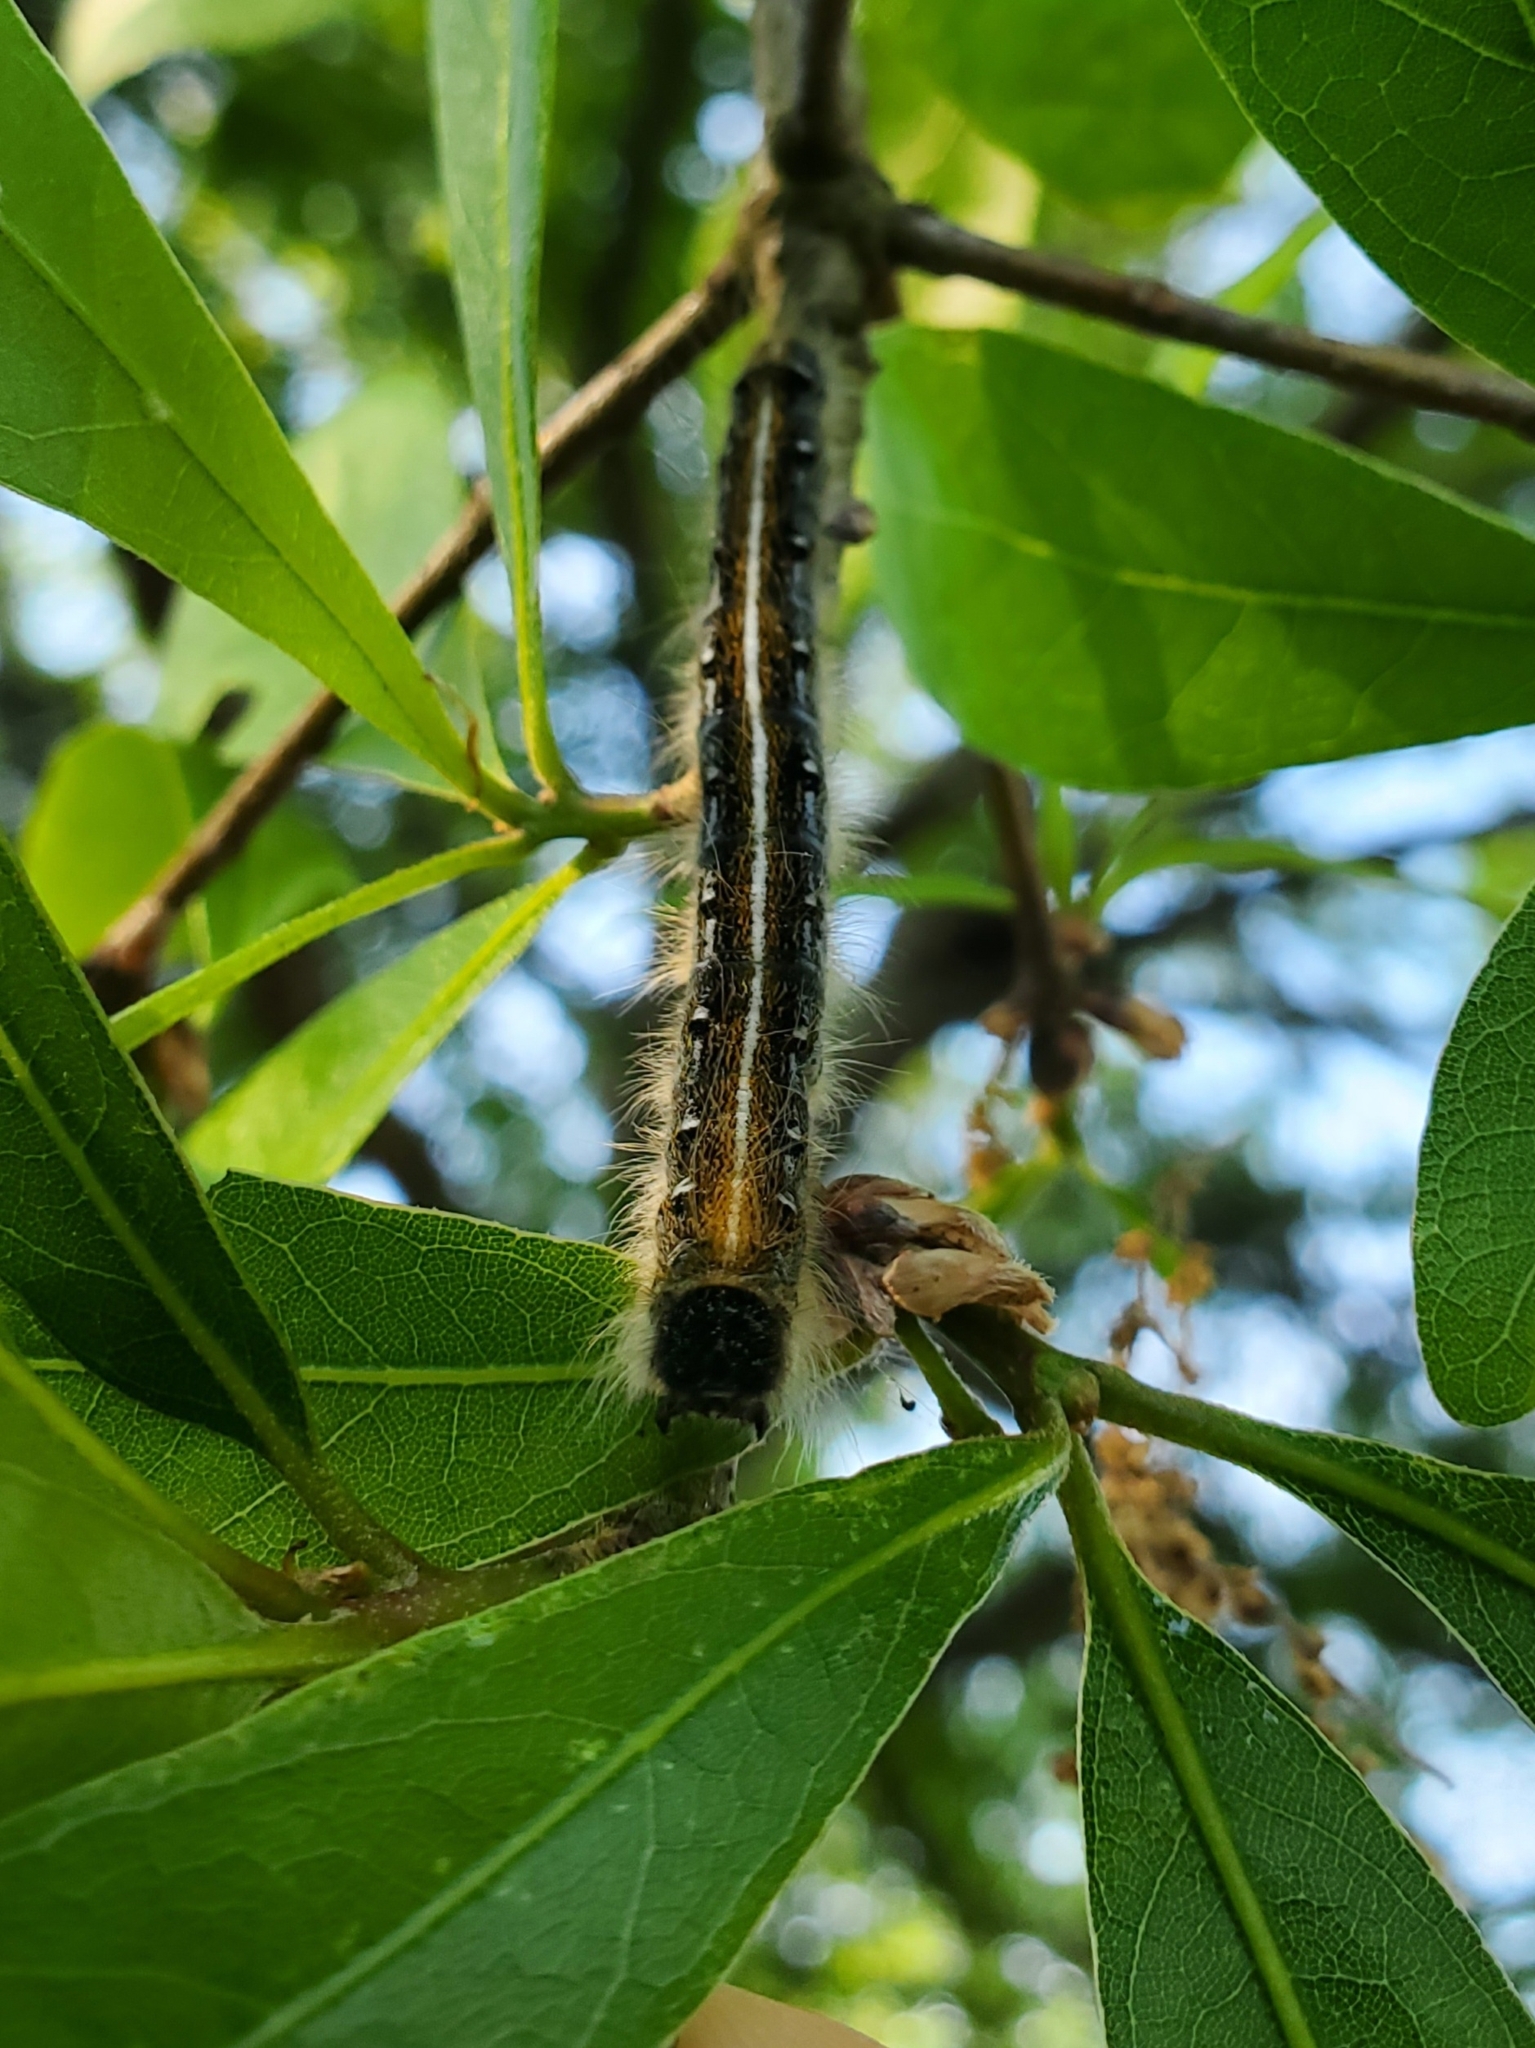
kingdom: Animalia
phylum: Arthropoda
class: Insecta
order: Lepidoptera
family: Lasiocampidae
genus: Malacosoma
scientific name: Malacosoma americana
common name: Eastern tent caterpillar moth
